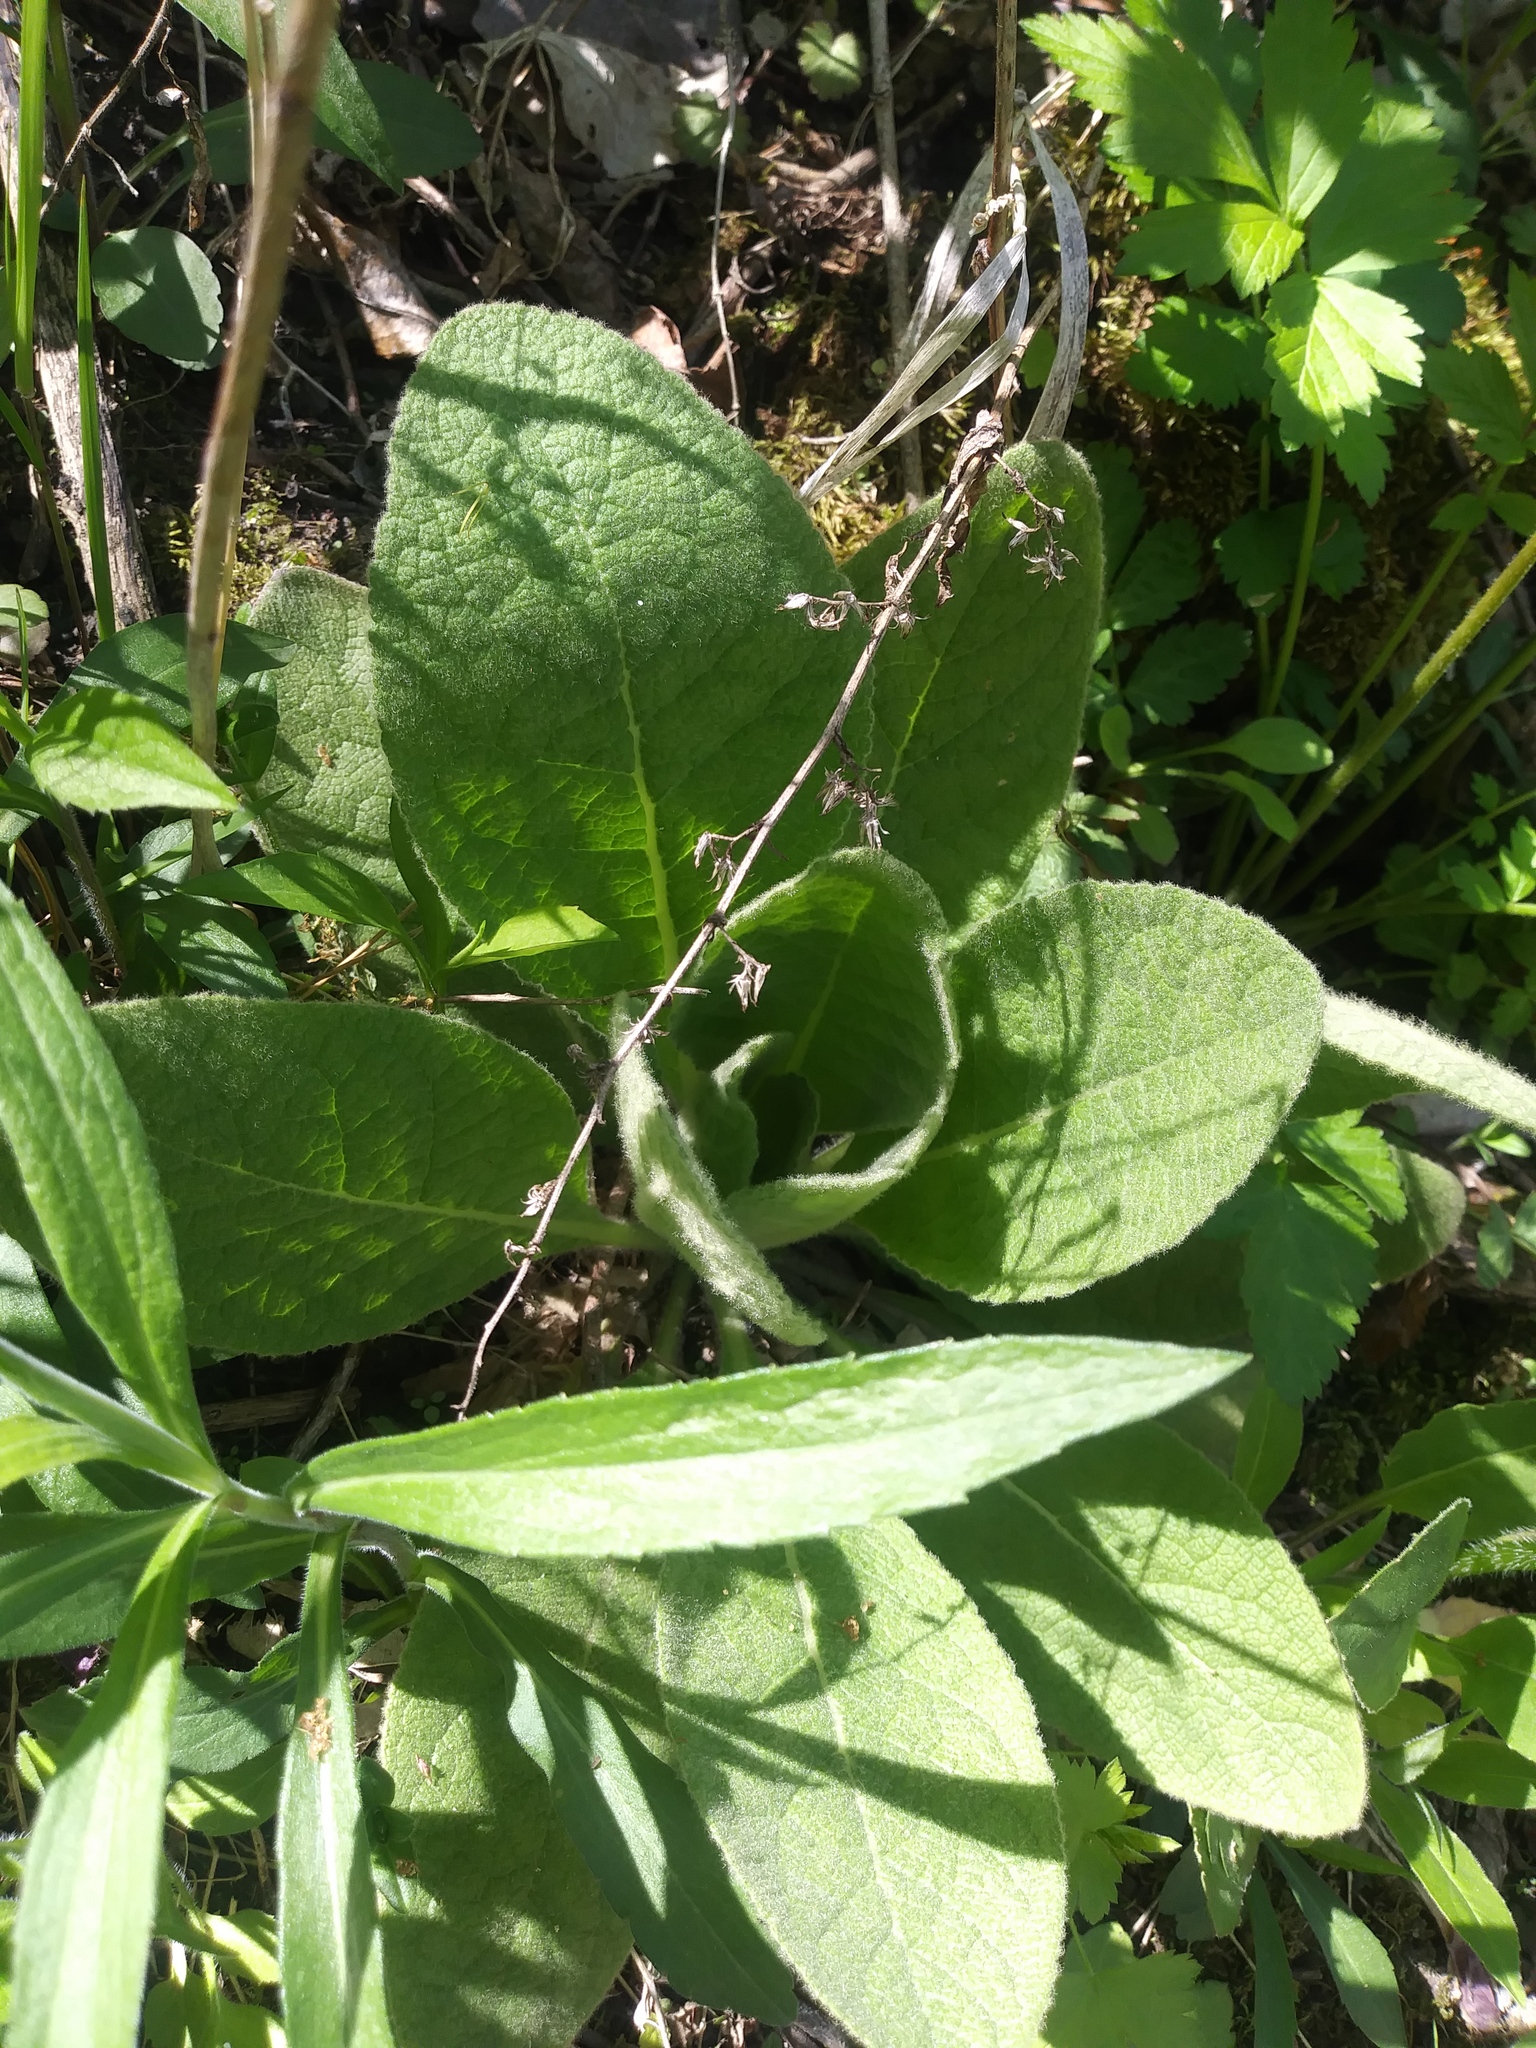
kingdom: Plantae
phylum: Tracheophyta
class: Magnoliopsida
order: Lamiales
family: Scrophulariaceae
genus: Verbascum
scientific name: Verbascum thapsus
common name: Common mullein
